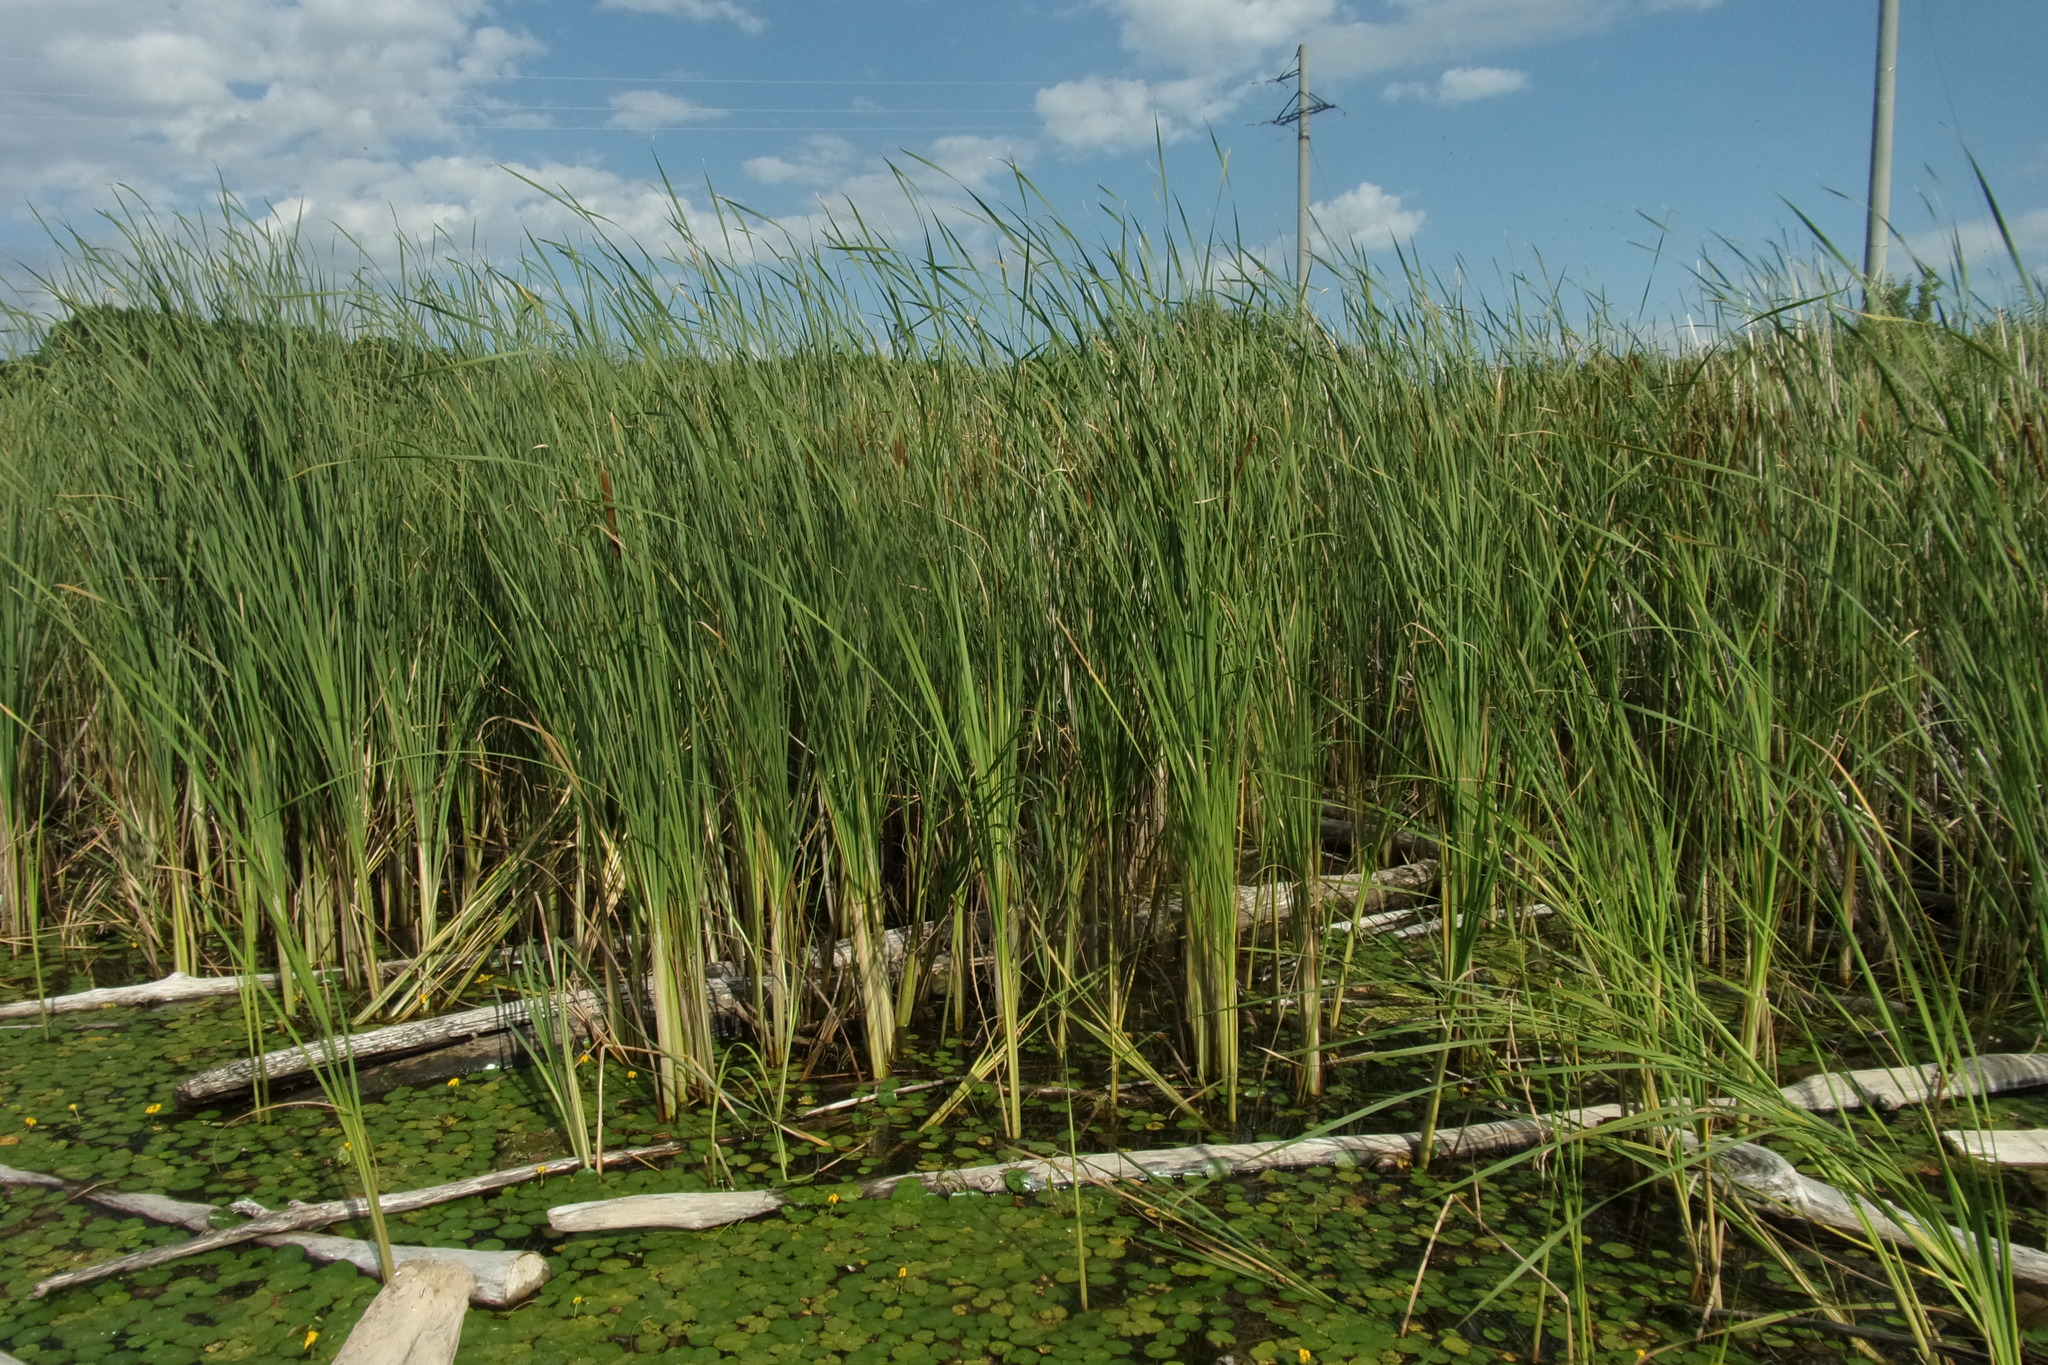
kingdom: Plantae
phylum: Tracheophyta
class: Liliopsida
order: Poales
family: Typhaceae
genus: Typha
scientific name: Typha angustifolia
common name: Lesser bulrush
